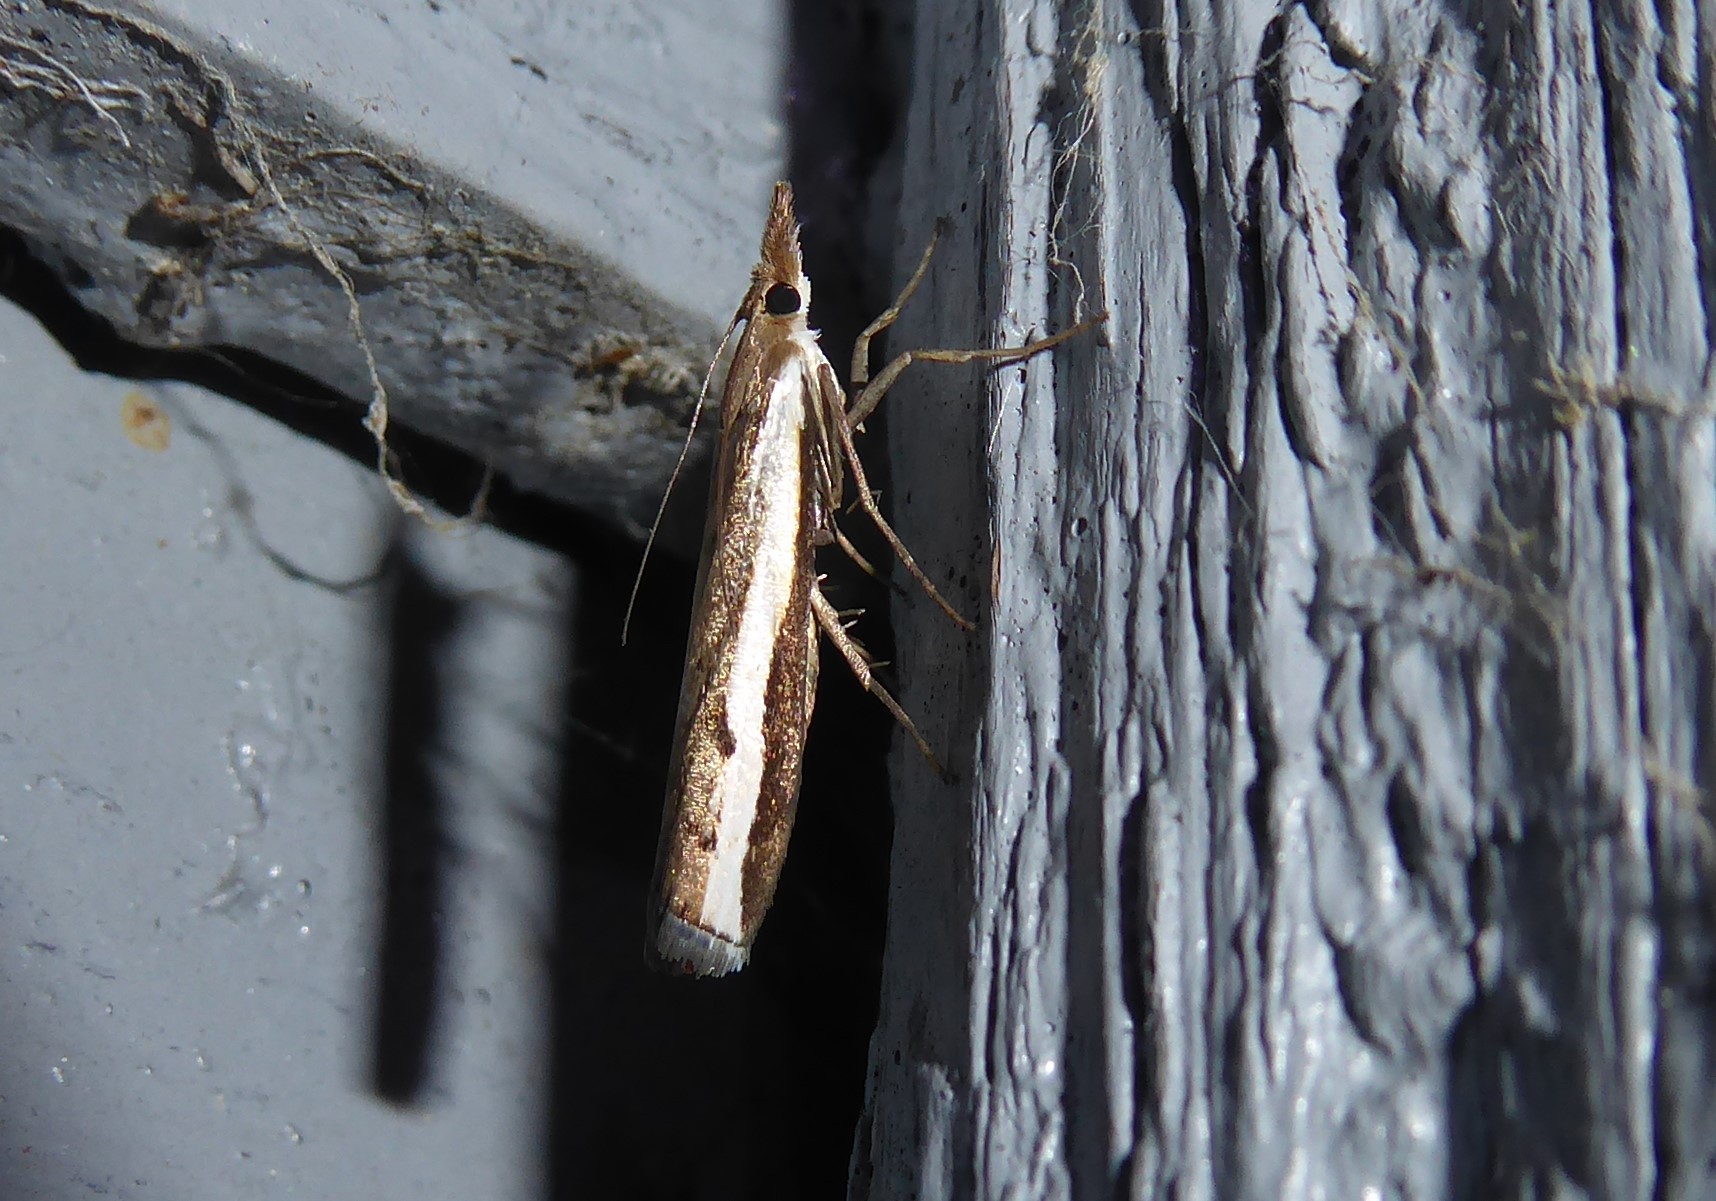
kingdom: Animalia
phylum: Arthropoda
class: Insecta
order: Lepidoptera
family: Crambidae
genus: Orocrambus
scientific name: Orocrambus flexuosellus
